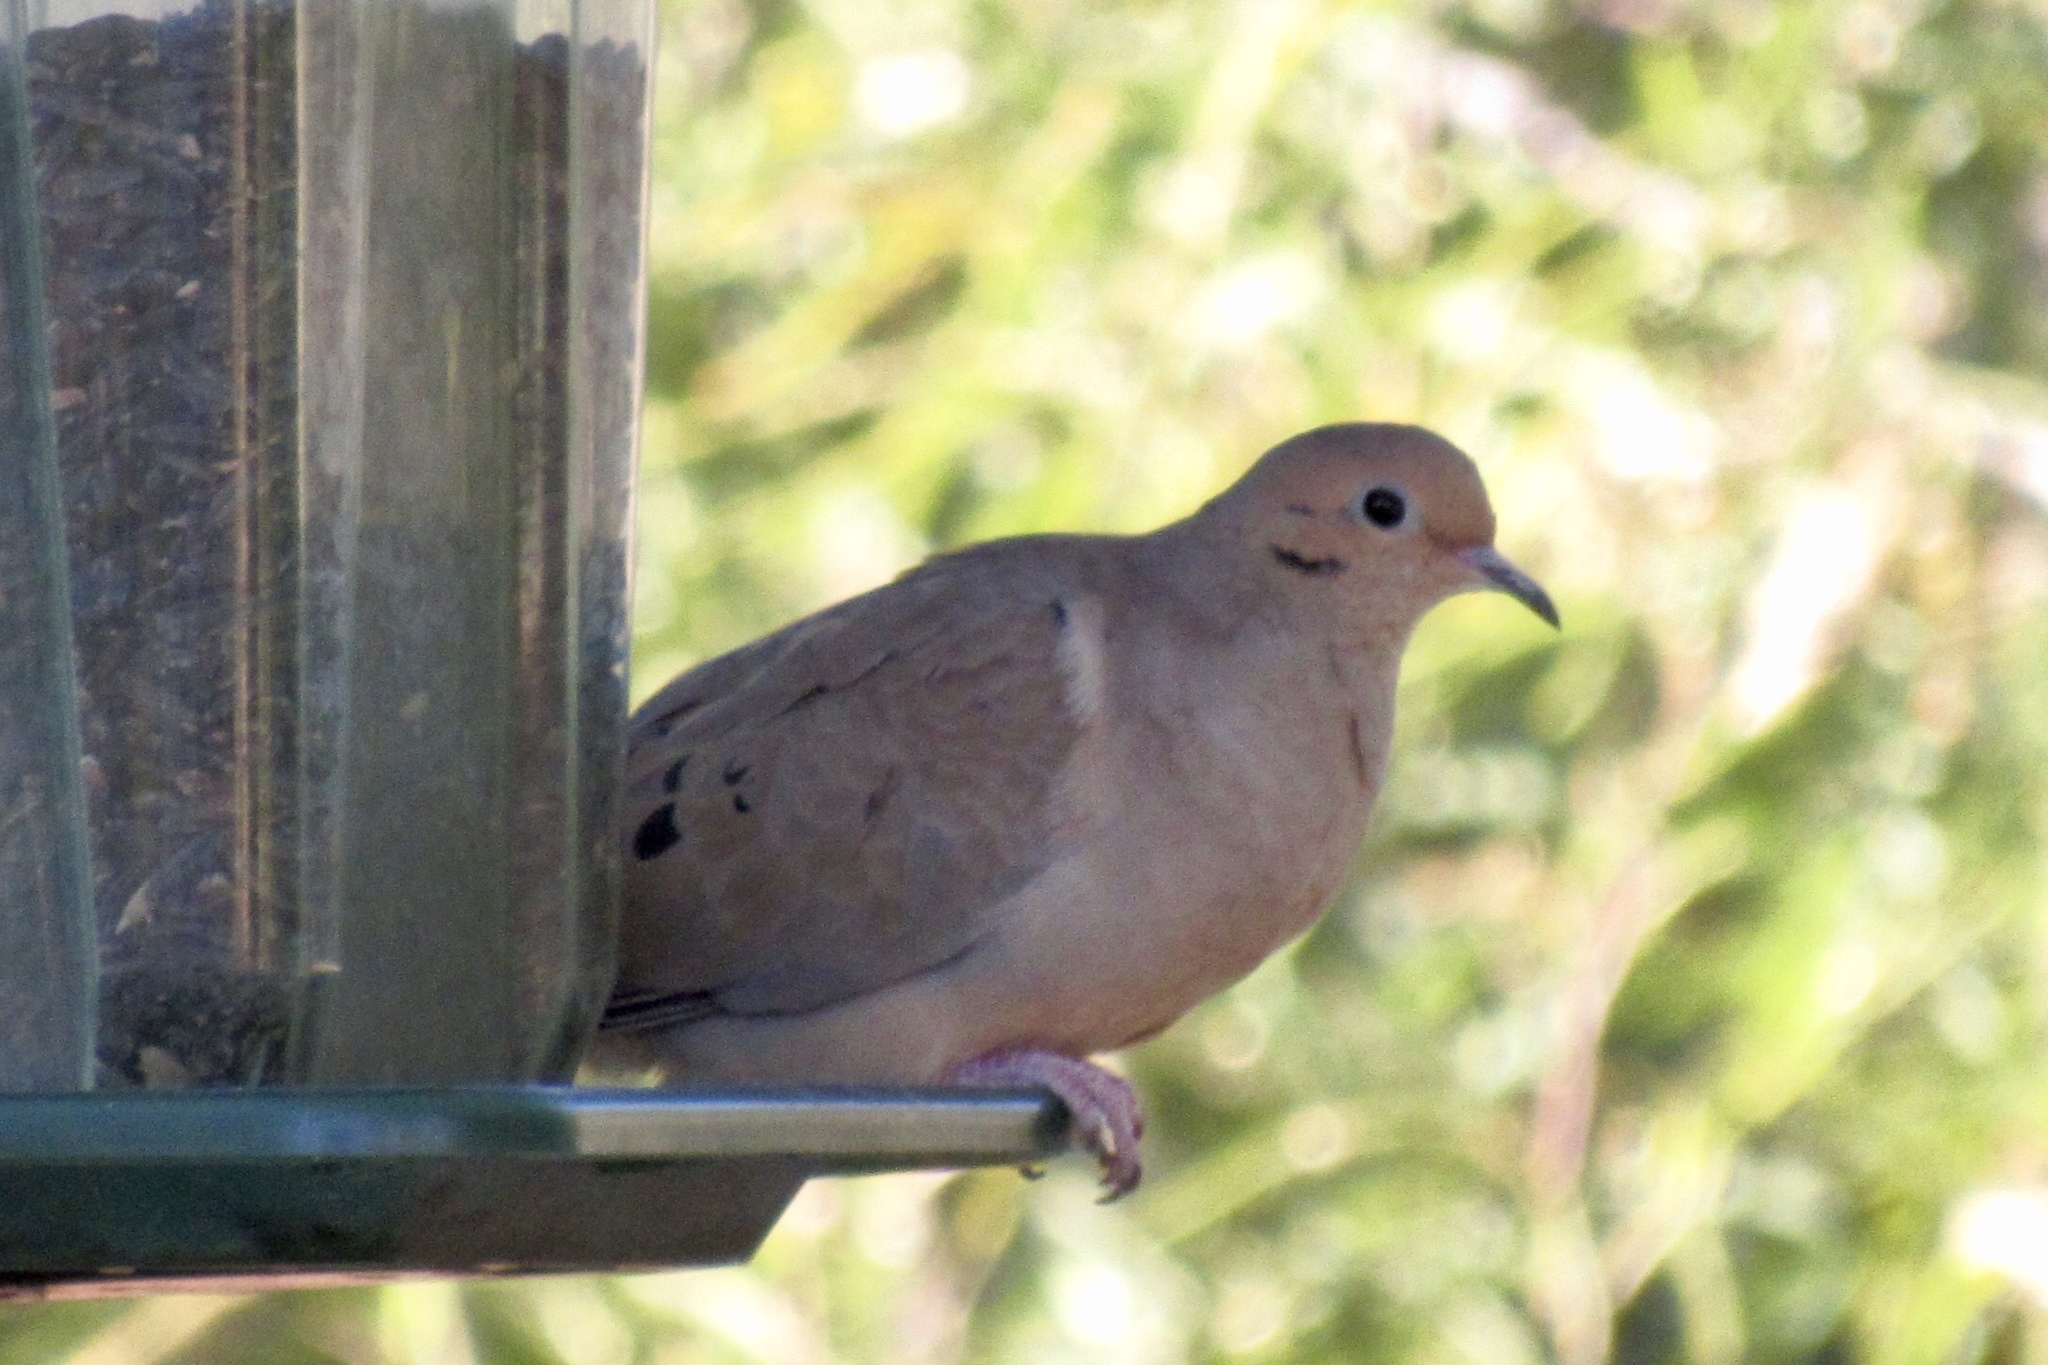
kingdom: Animalia
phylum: Chordata
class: Aves
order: Columbiformes
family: Columbidae
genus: Zenaida
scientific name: Zenaida macroura
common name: Mourning dove
